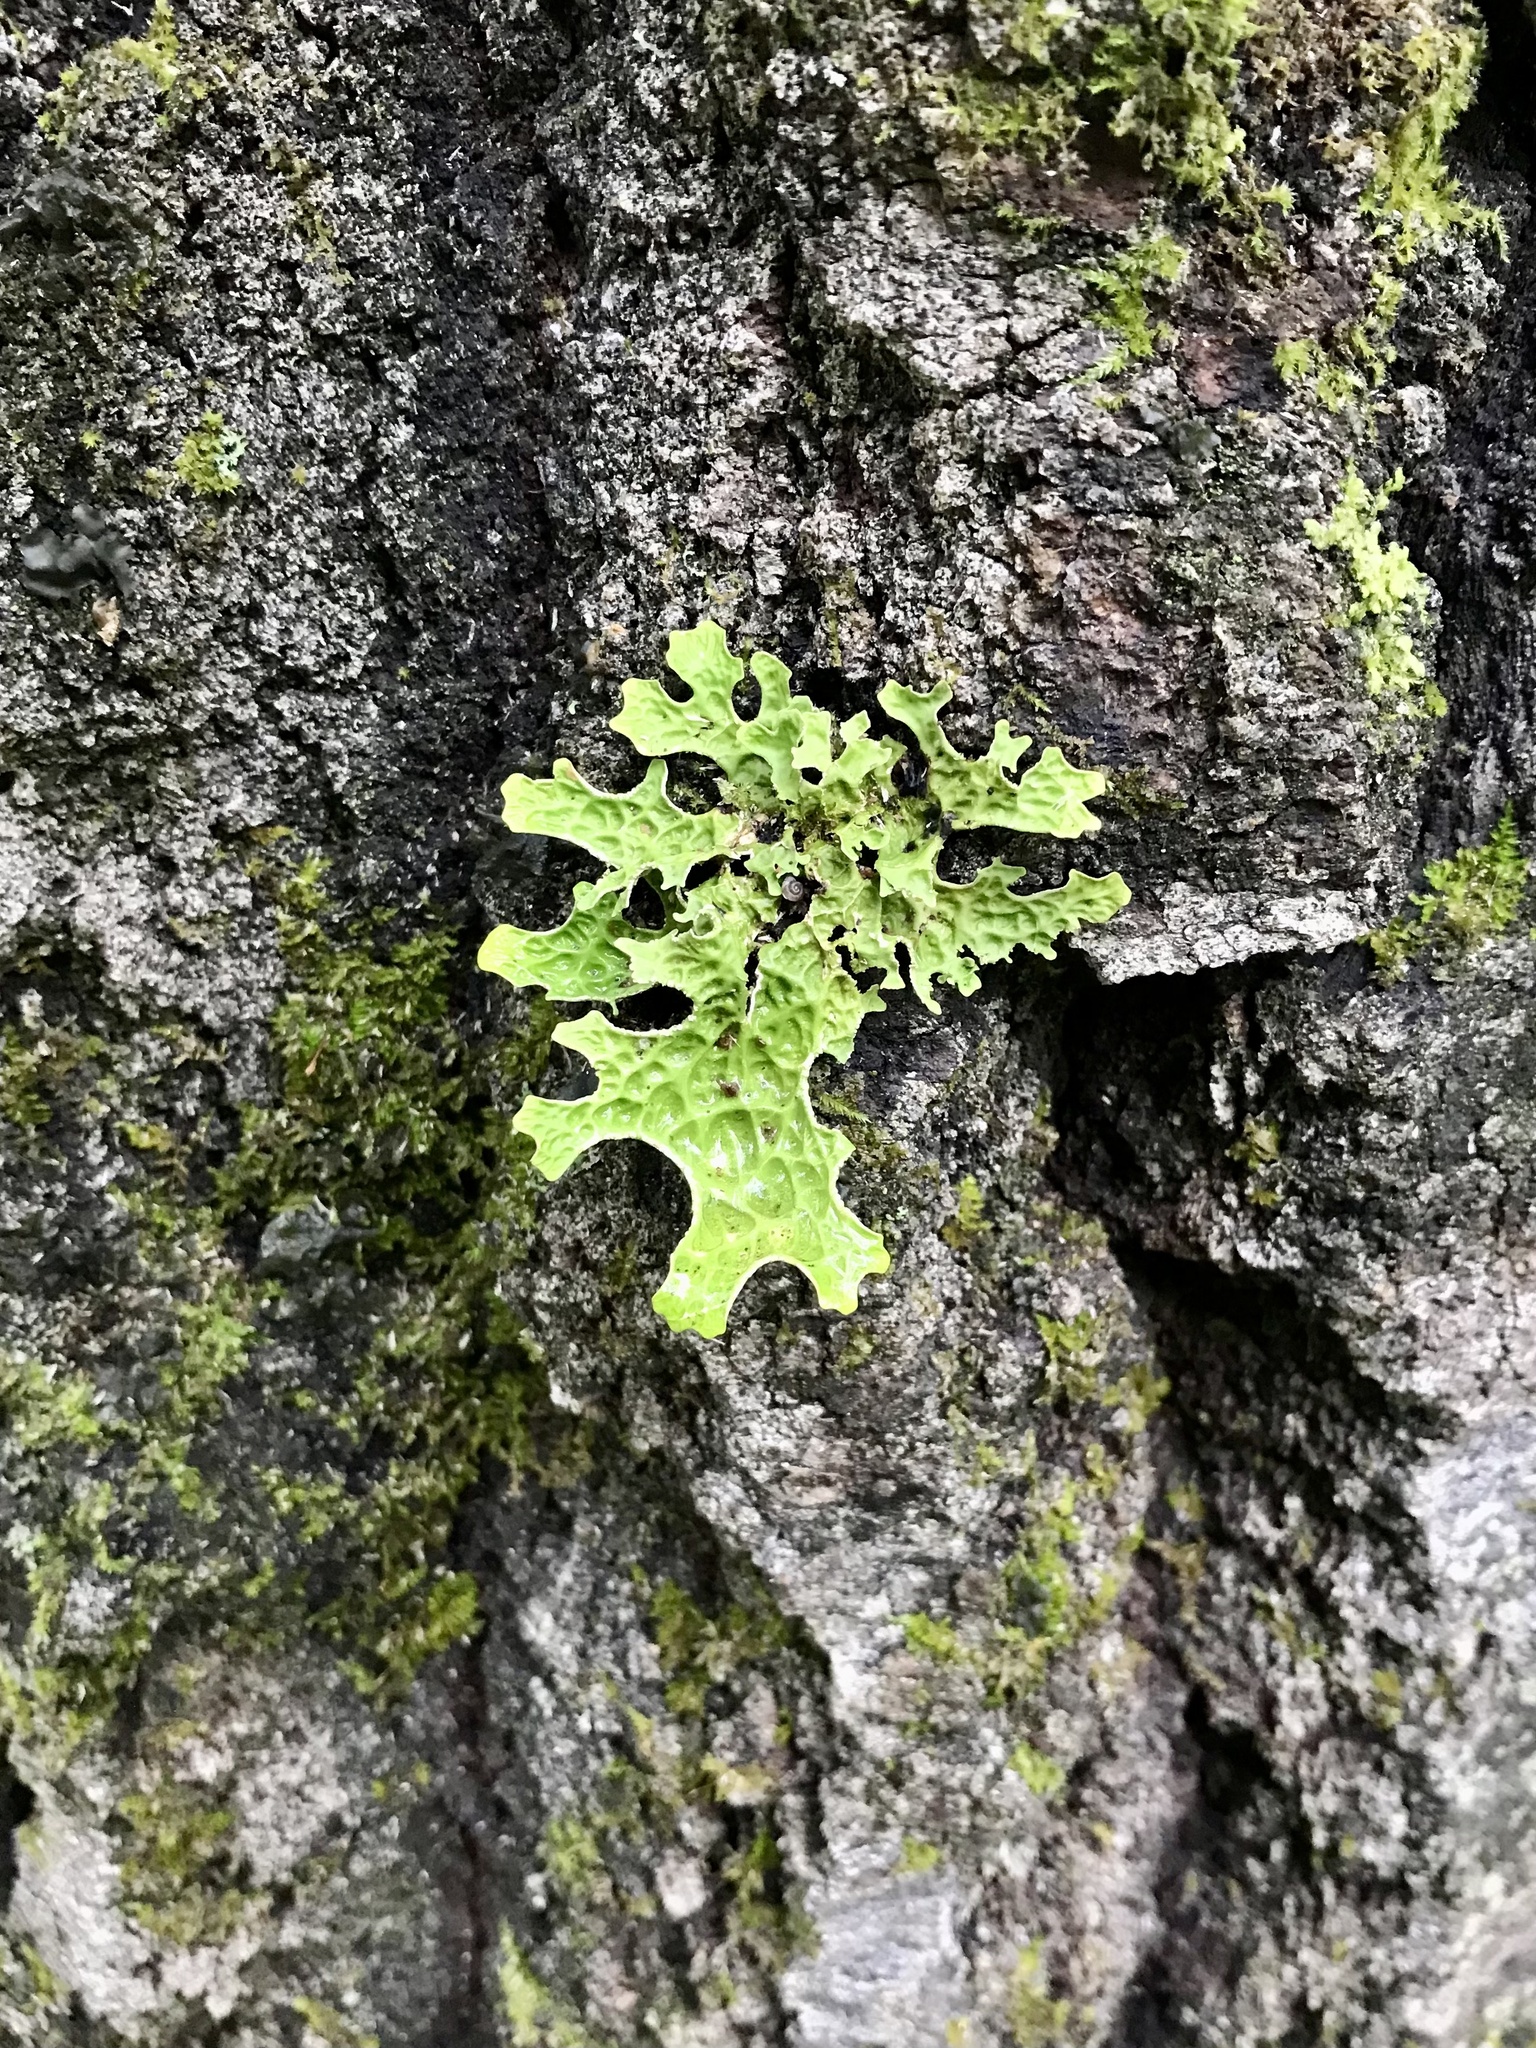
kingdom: Fungi
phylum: Ascomycota
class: Lecanoromycetes
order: Peltigerales
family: Lobariaceae
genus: Lobaria
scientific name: Lobaria pulmonaria
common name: Lungwort
